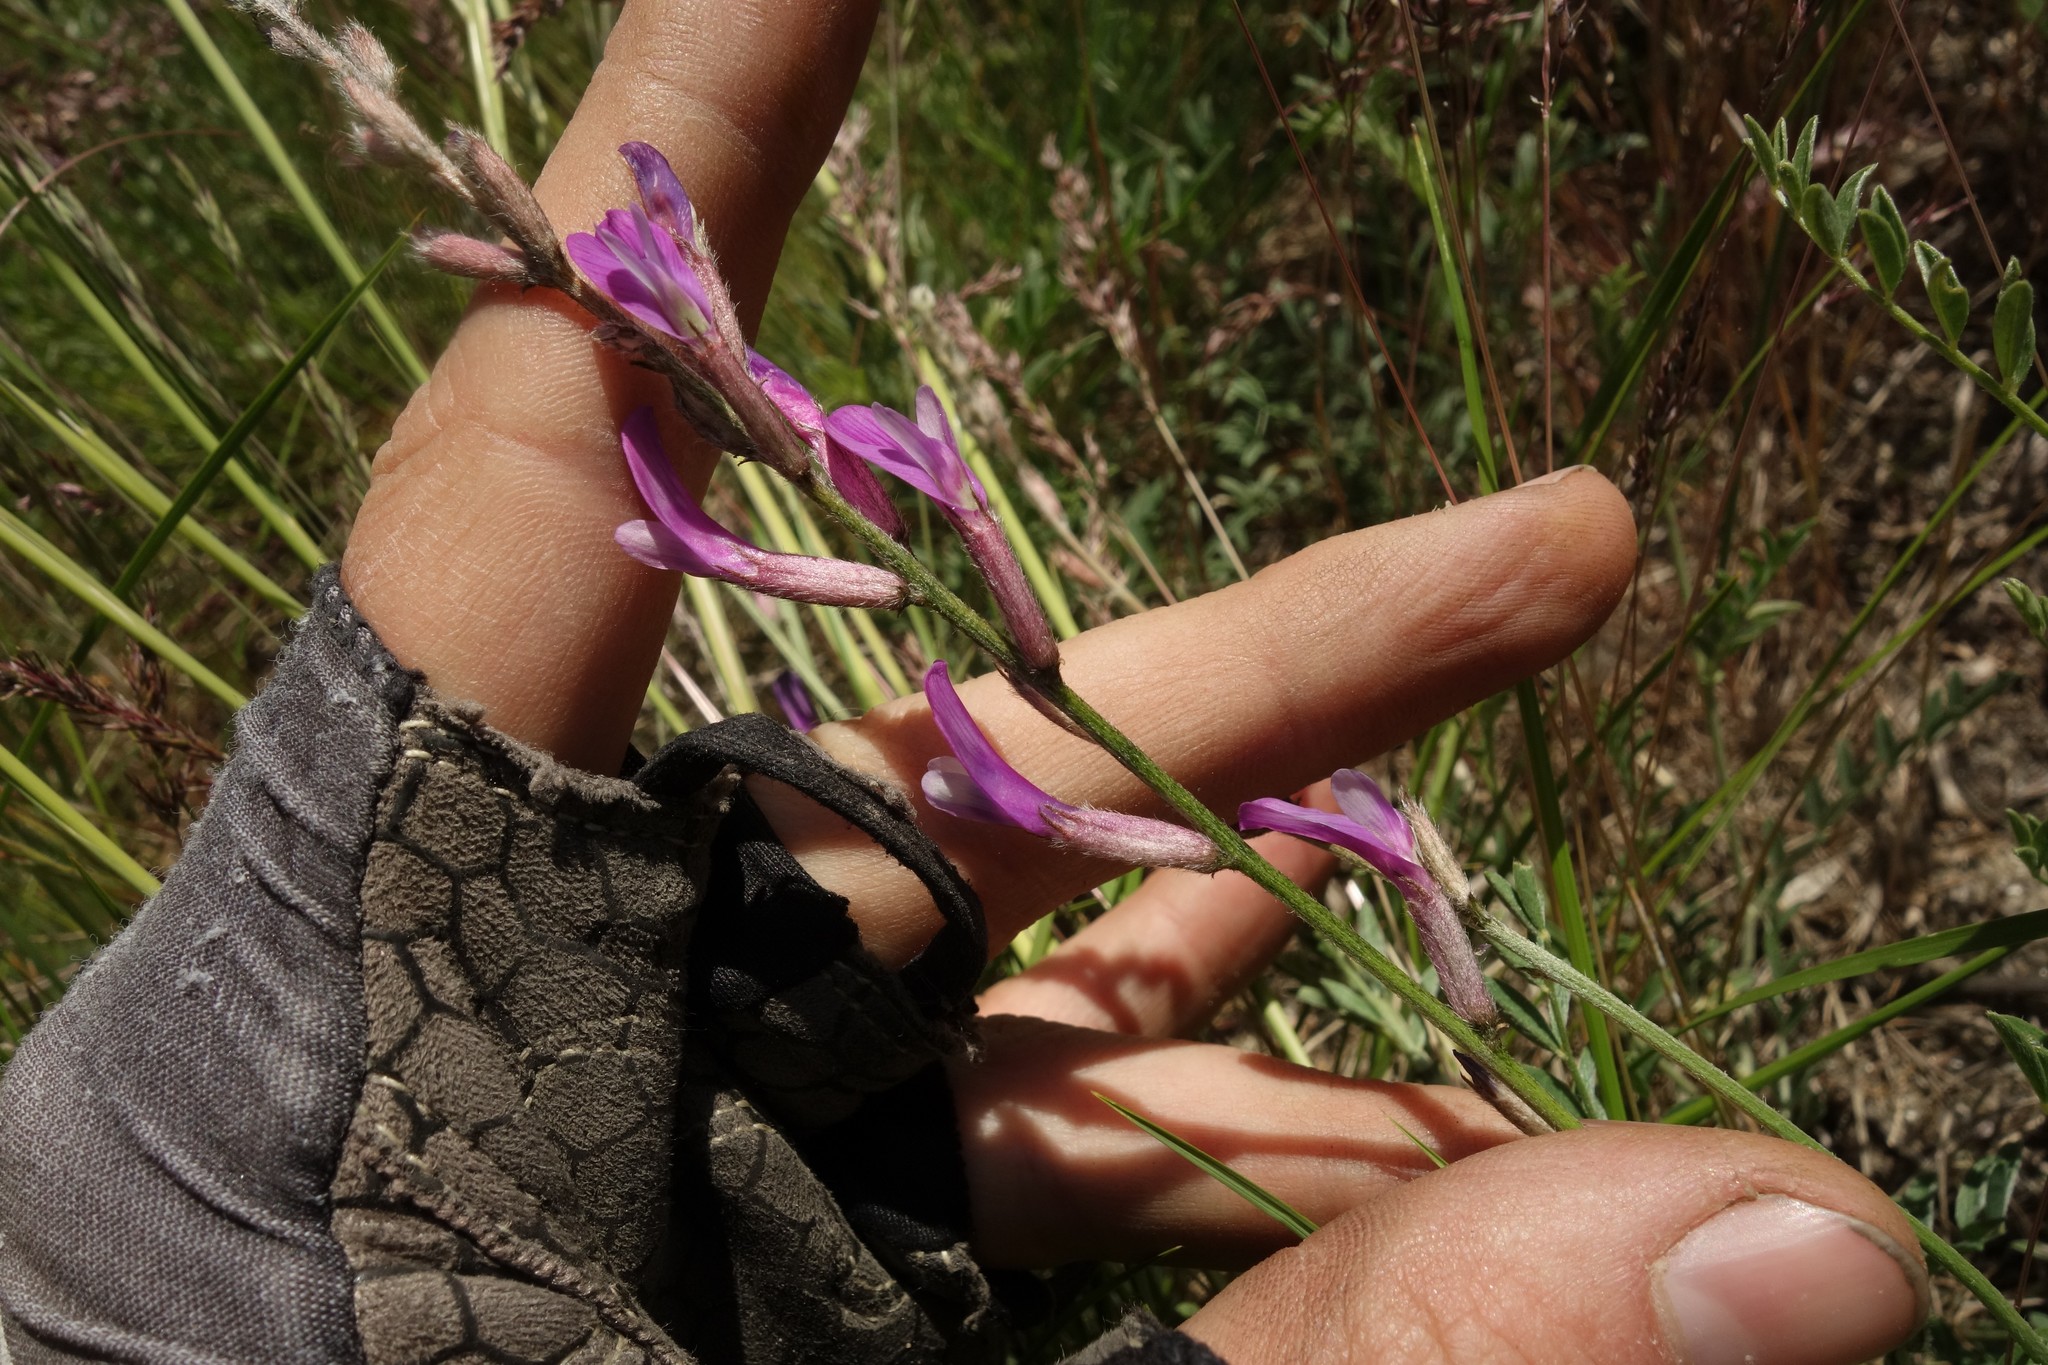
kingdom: Plantae
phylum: Tracheophyta
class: Magnoliopsida
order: Fabales
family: Fabaceae
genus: Astragalus
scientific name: Astragalus varius
